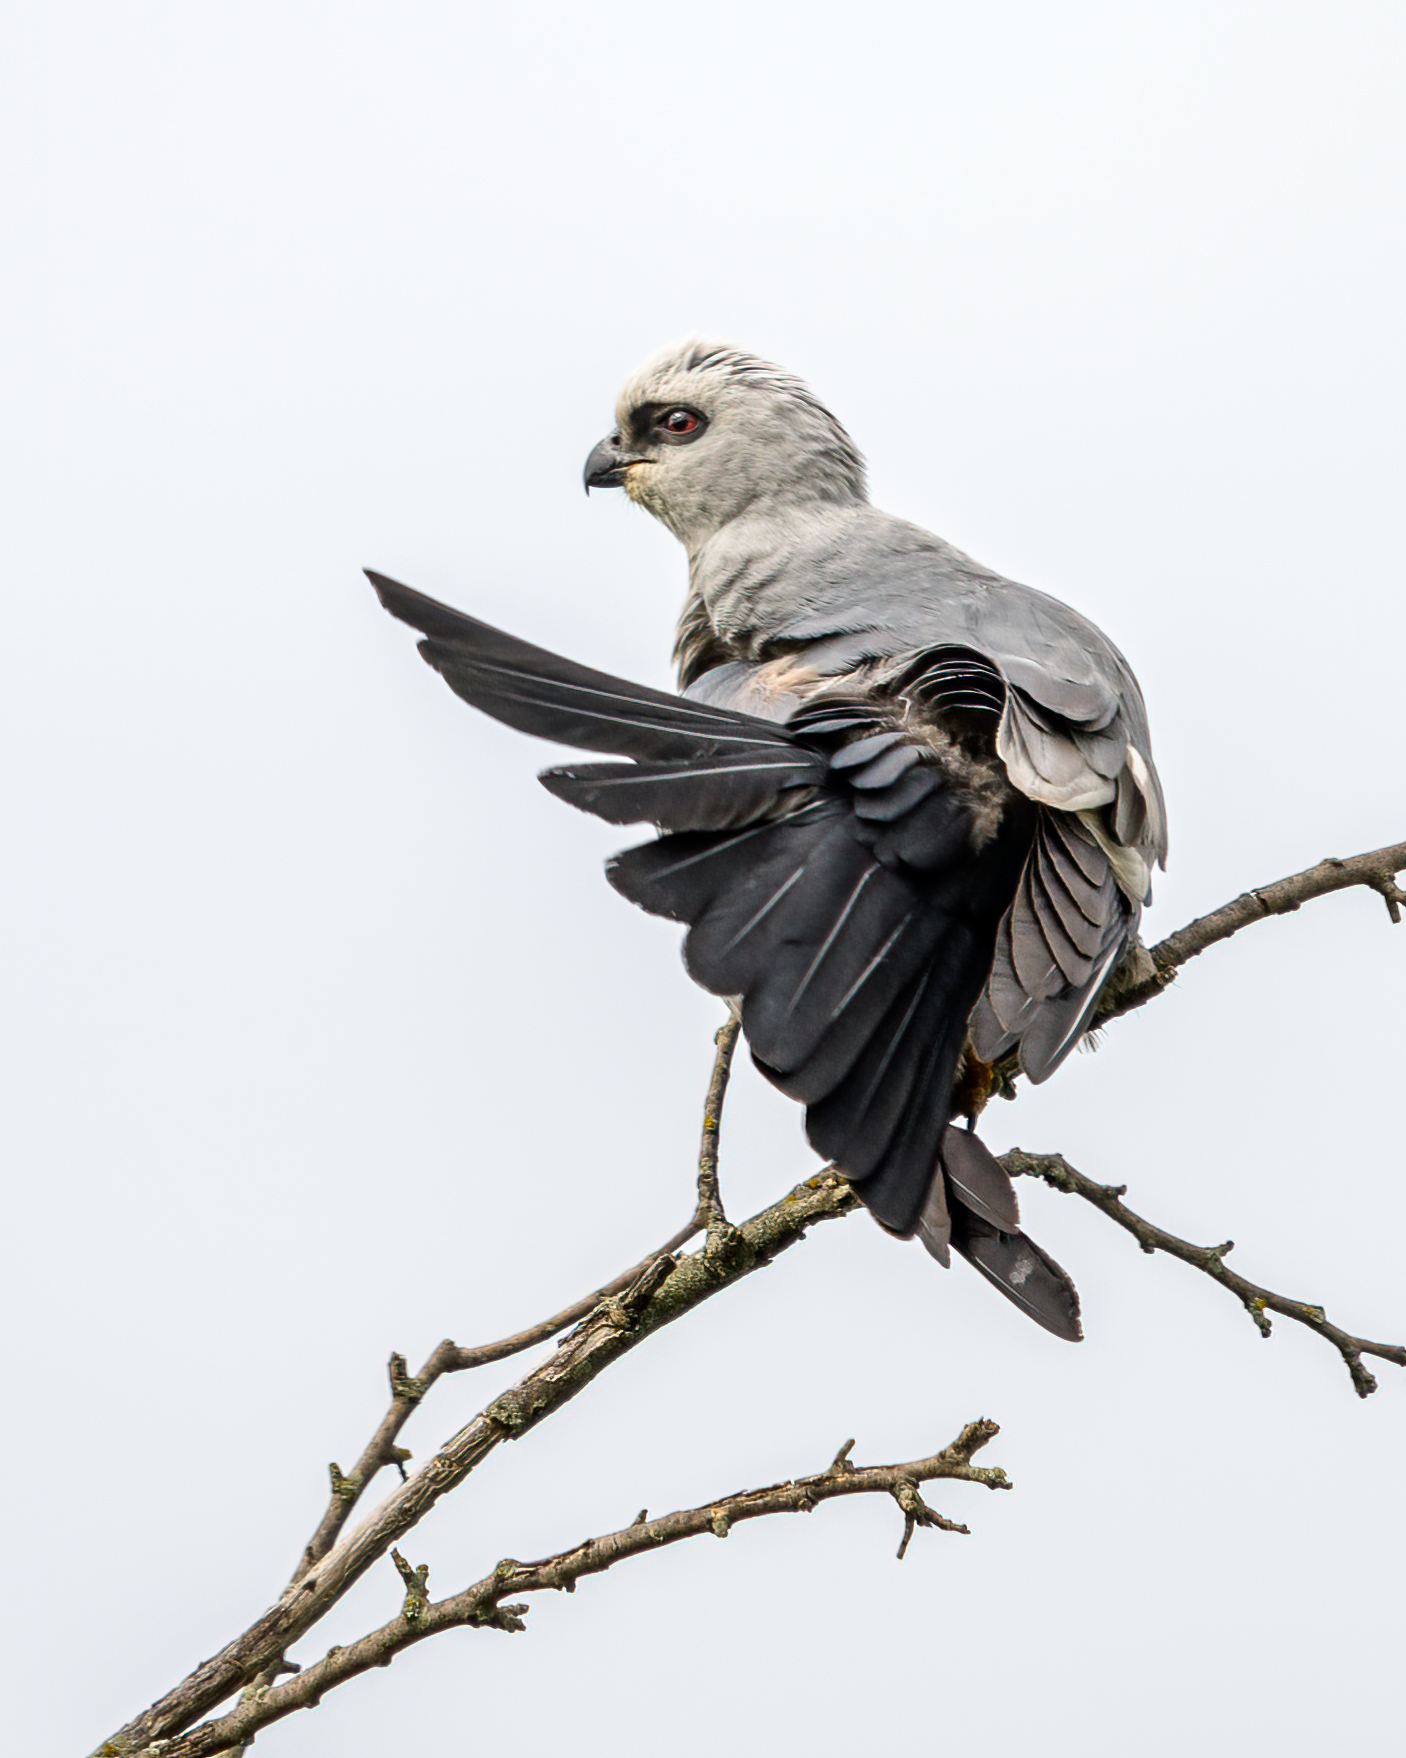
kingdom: Animalia
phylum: Chordata
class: Aves
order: Accipitriformes
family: Accipitridae
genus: Ictinia
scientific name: Ictinia mississippiensis
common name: Mississippi kite
